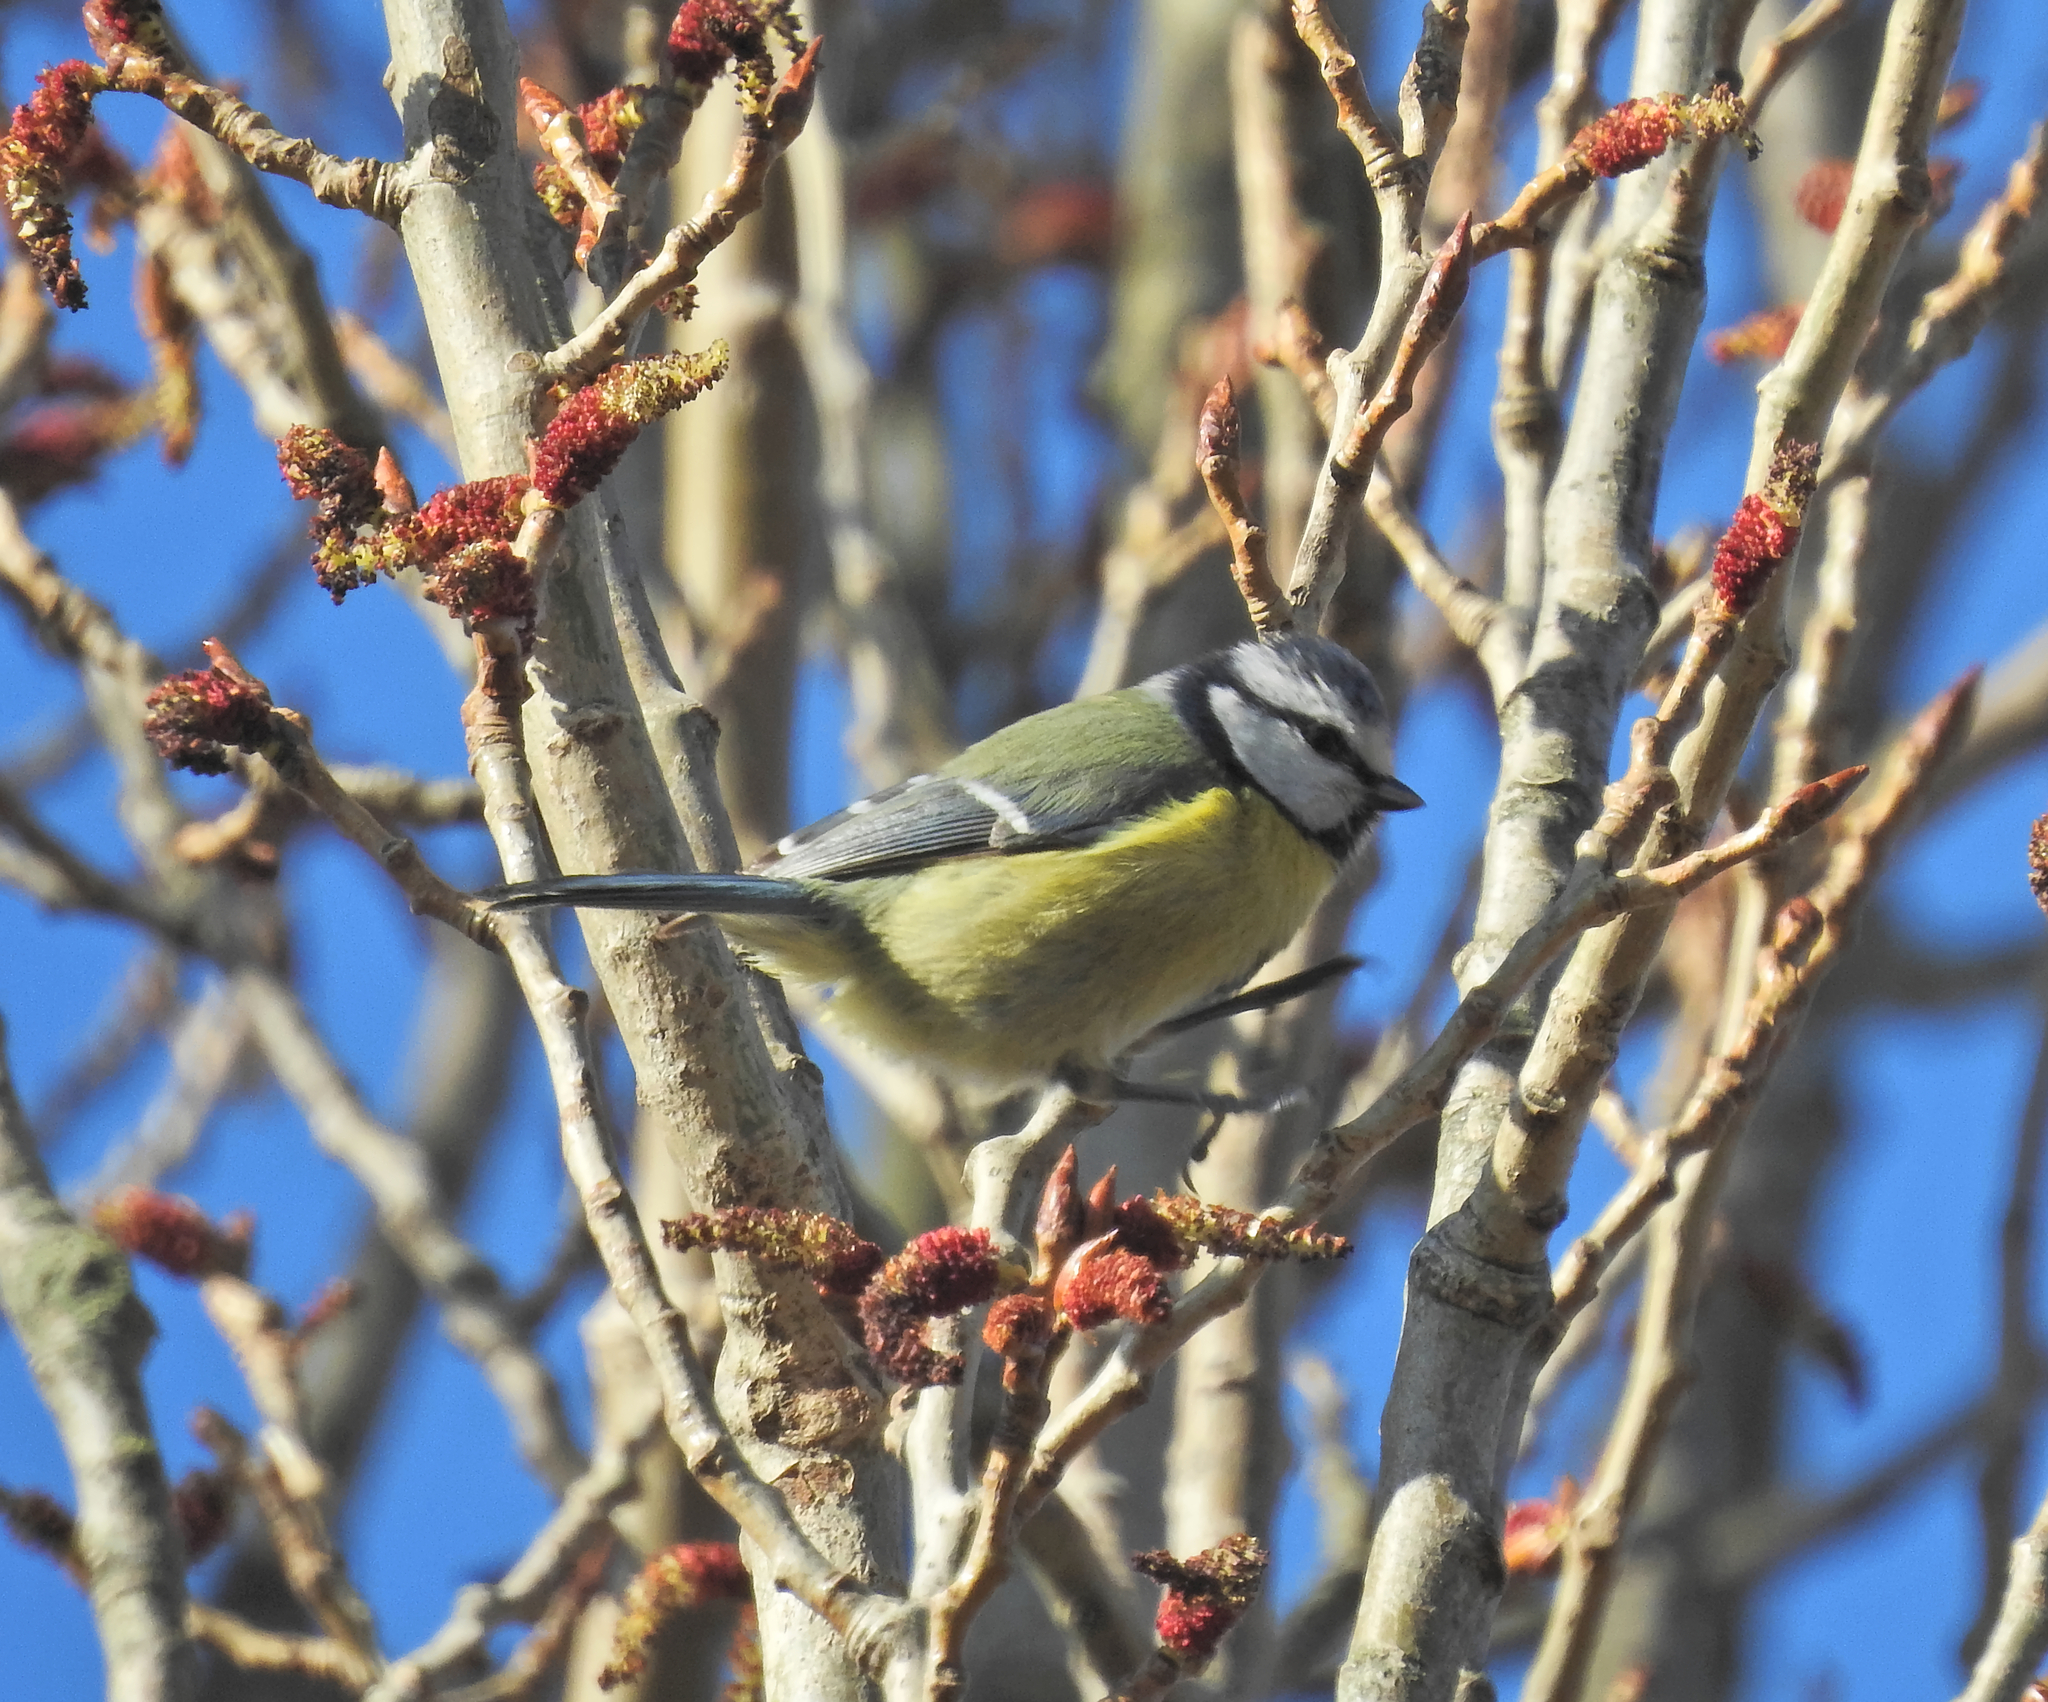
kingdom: Animalia
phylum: Chordata
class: Aves
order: Passeriformes
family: Paridae
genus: Cyanistes
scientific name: Cyanistes caeruleus
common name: Eurasian blue tit
